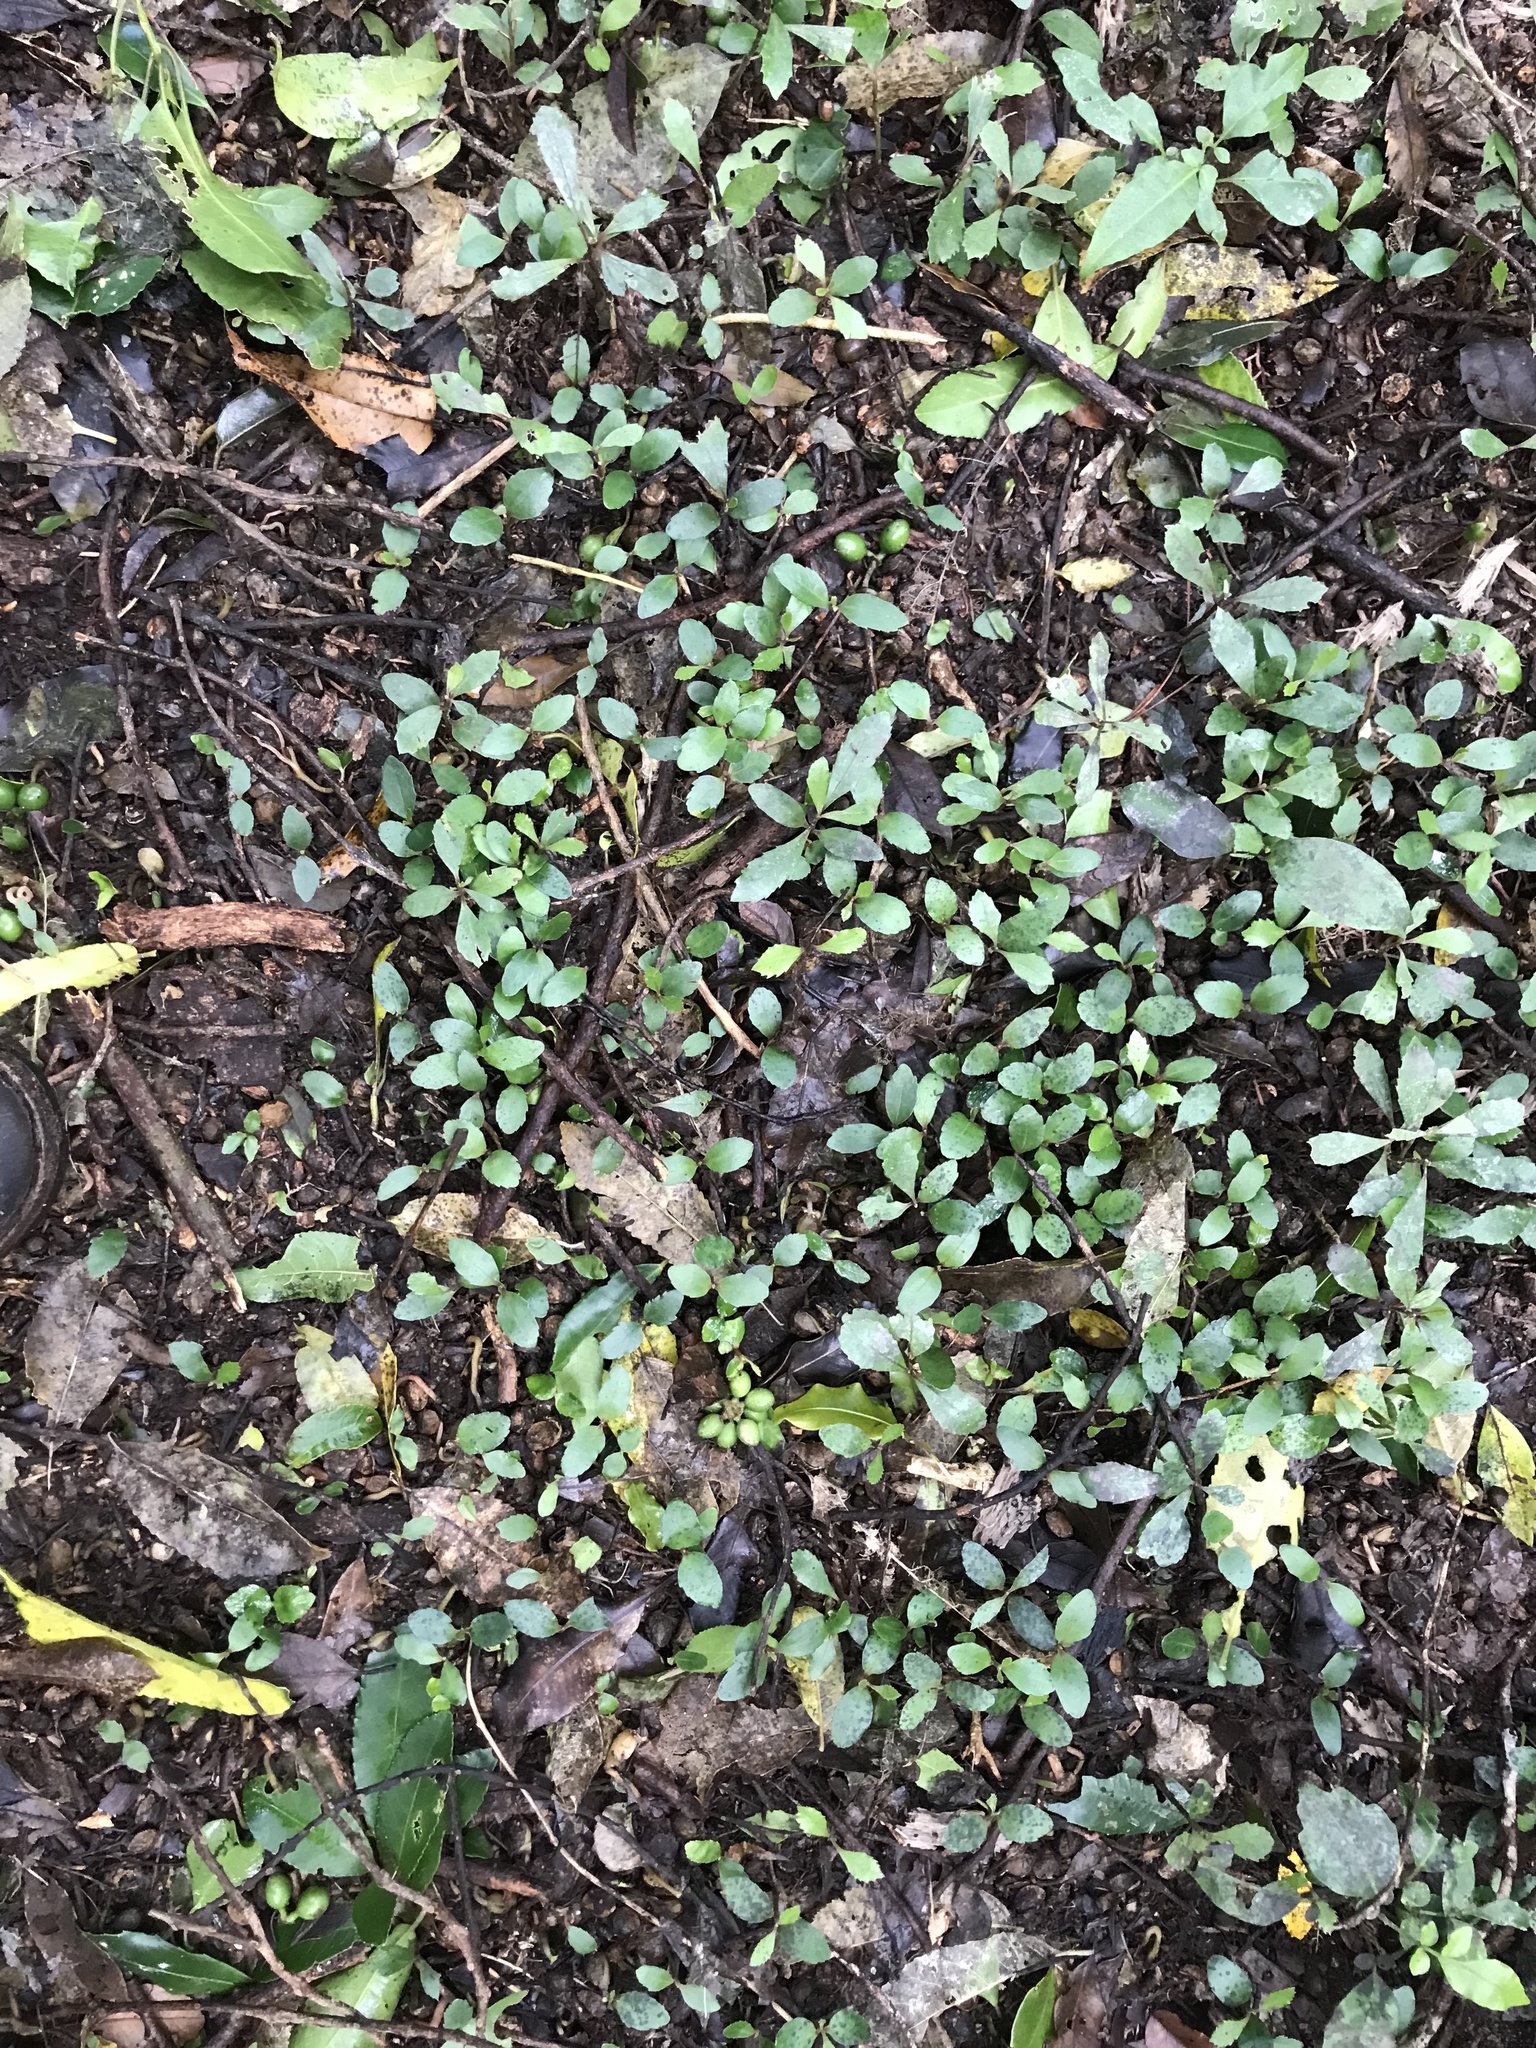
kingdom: Plantae
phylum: Tracheophyta
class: Magnoliopsida
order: Laurales
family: Monimiaceae
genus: Hedycarya
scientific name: Hedycarya arborea
